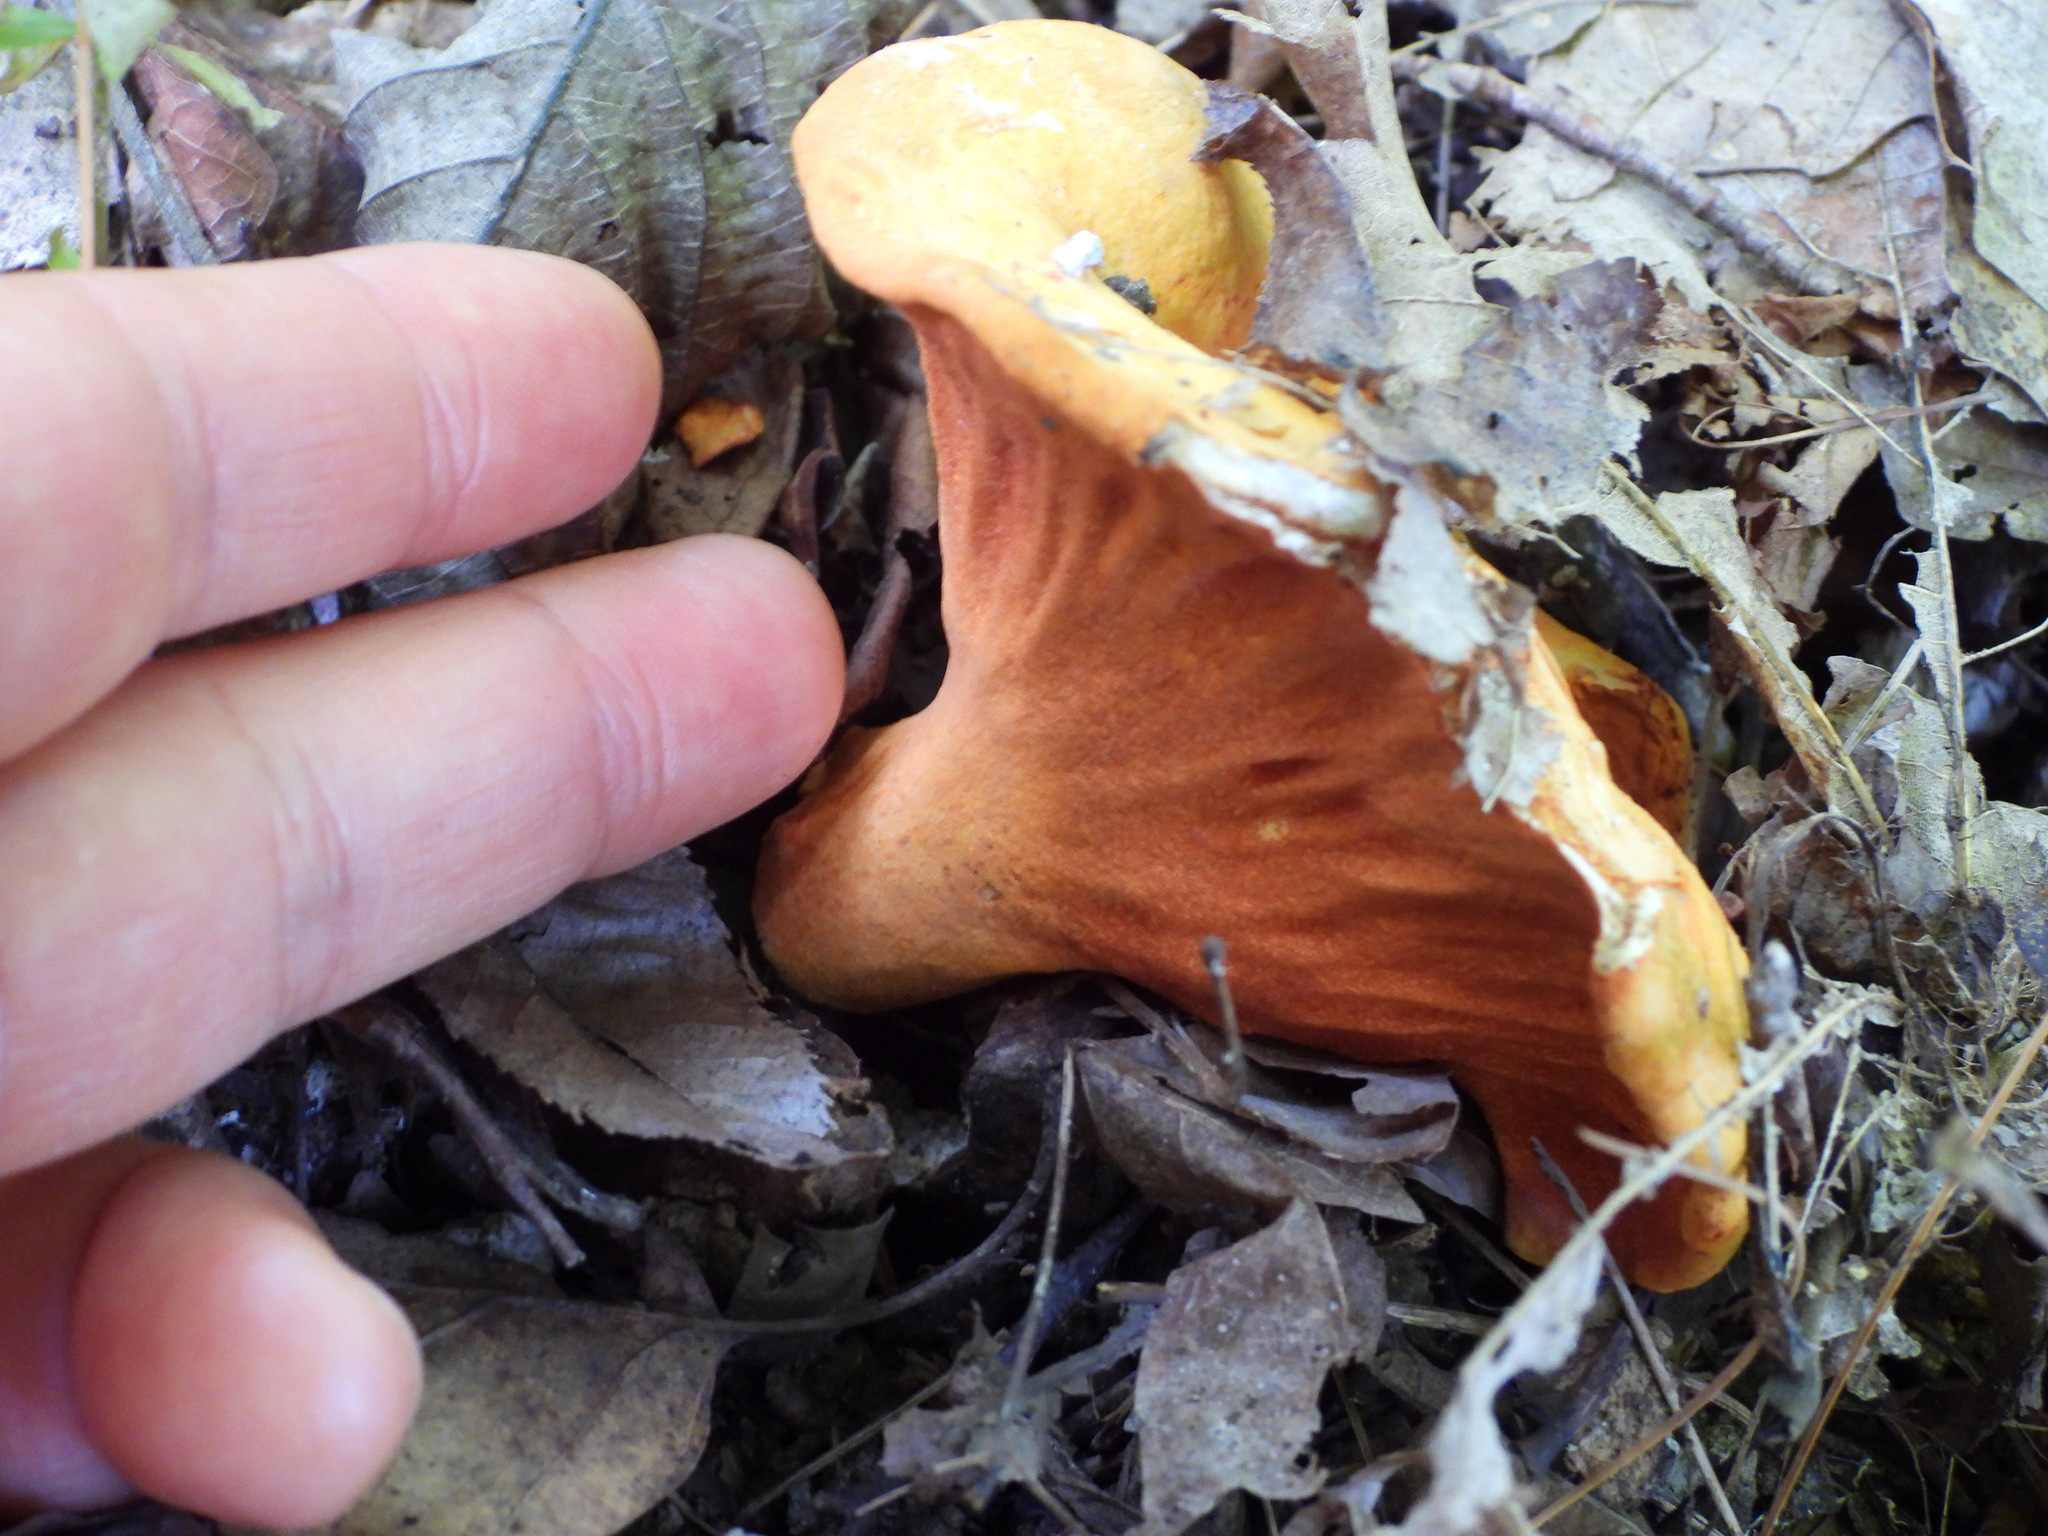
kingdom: Fungi
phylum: Ascomycota
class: Sordariomycetes
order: Hypocreales
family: Hypocreaceae
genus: Hypomyces
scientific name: Hypomyces lactifluorum
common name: Lobster mushroom
